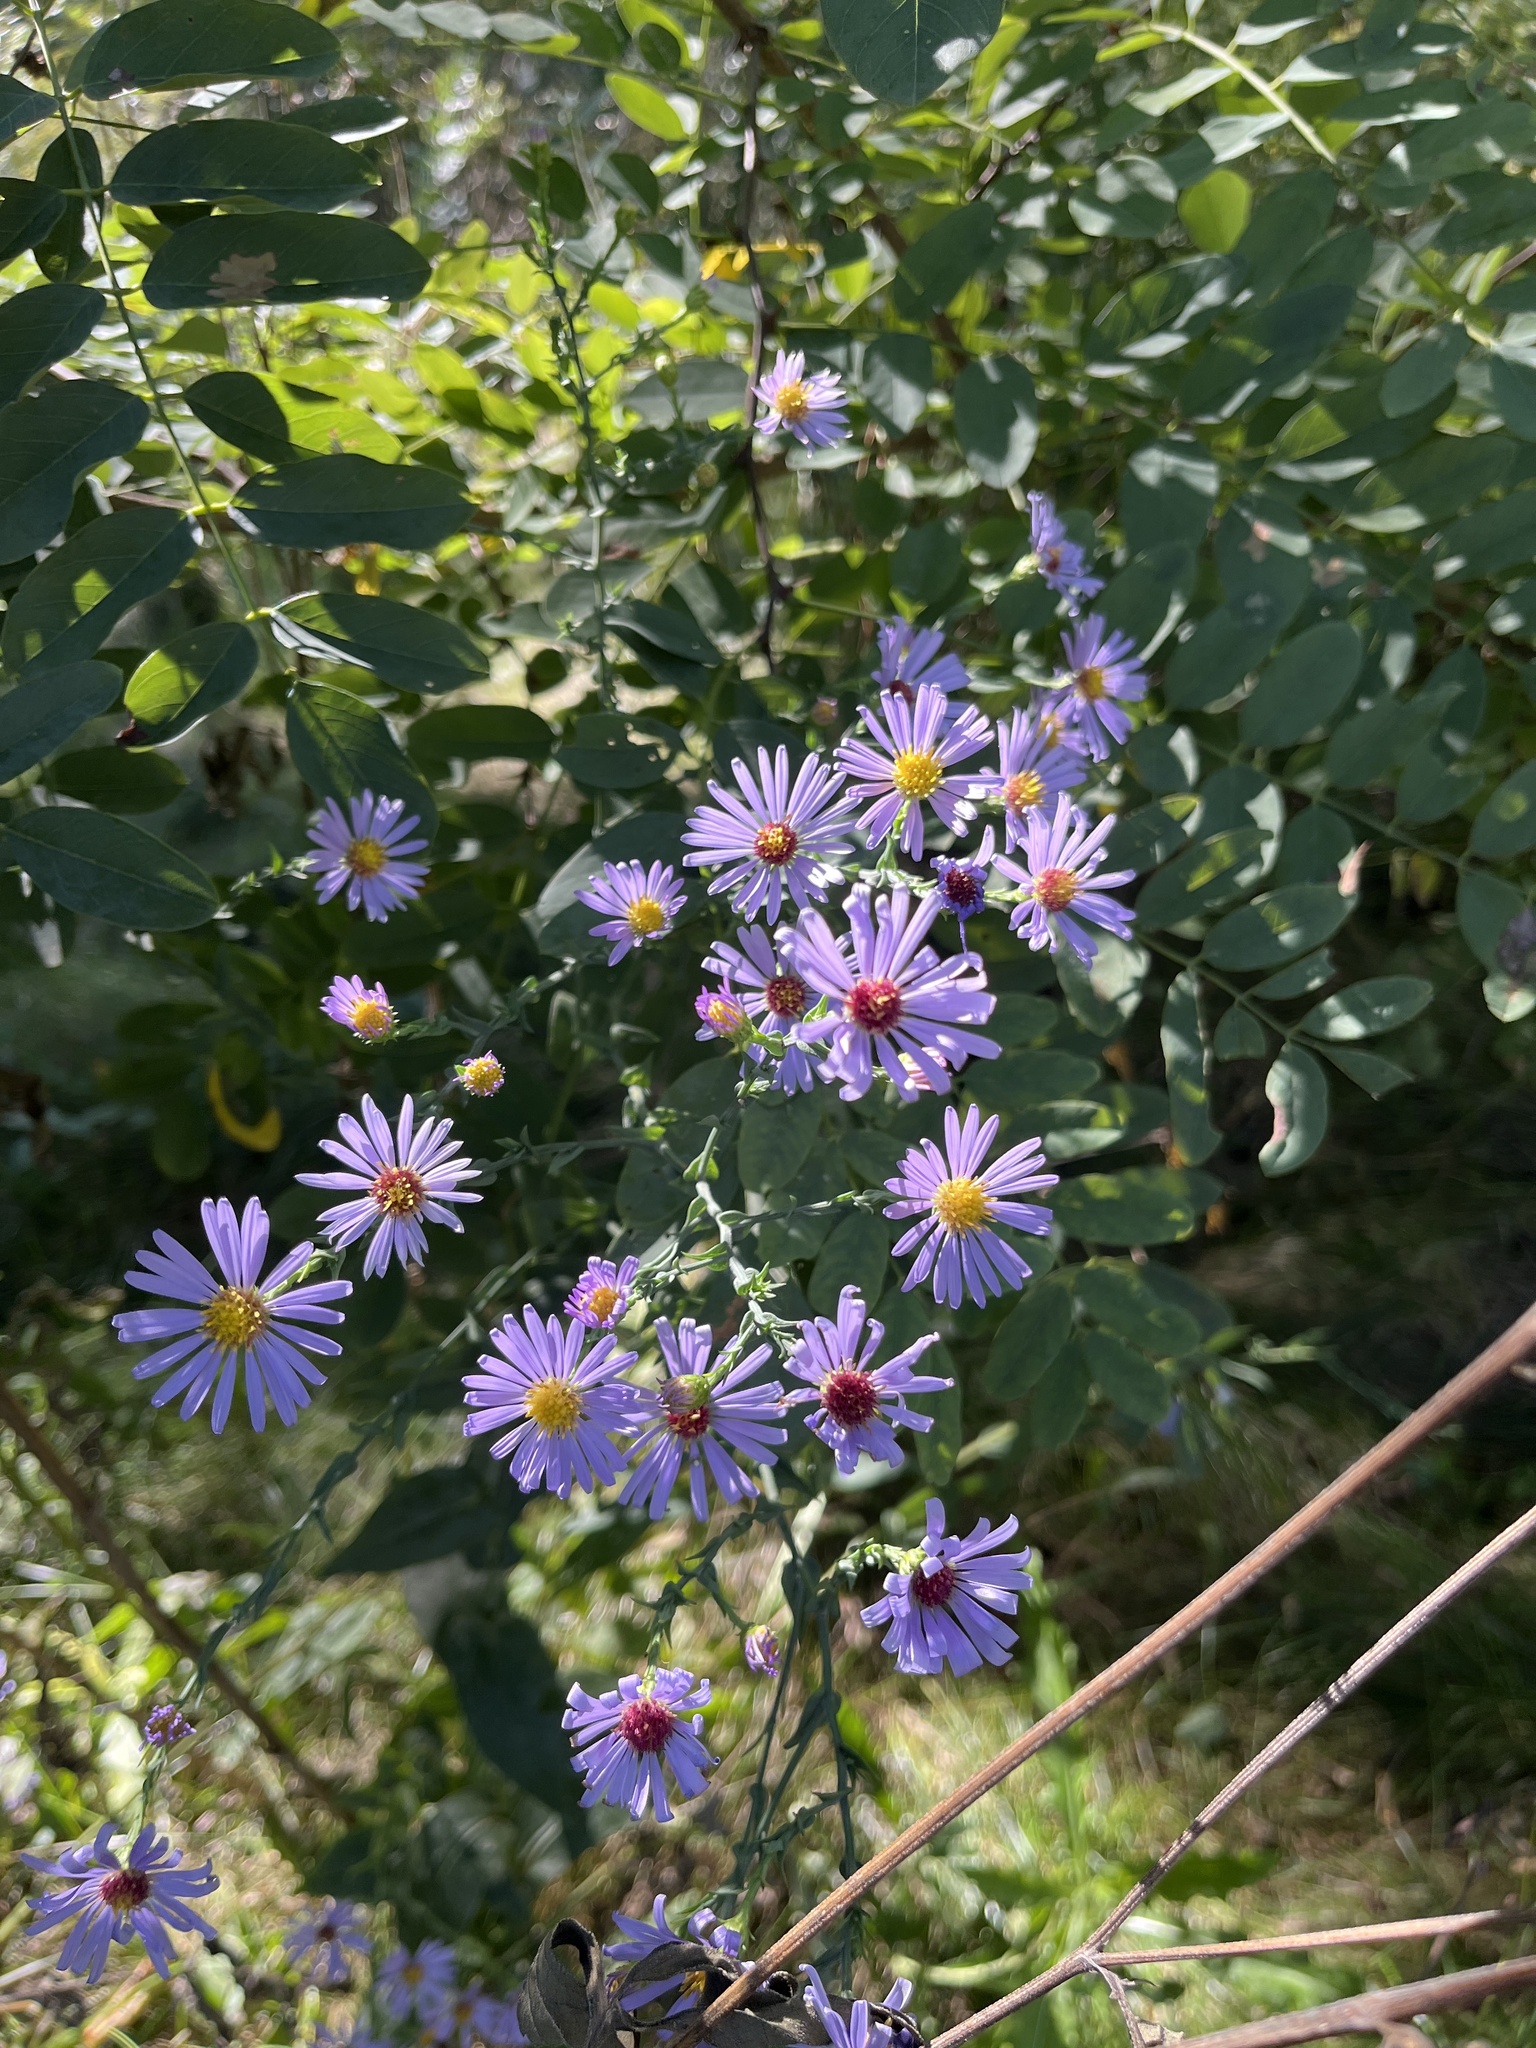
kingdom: Plantae
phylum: Tracheophyta
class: Magnoliopsida
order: Asterales
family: Asteraceae
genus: Symphyotrichum
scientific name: Symphyotrichum laeve
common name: Glaucous aster
